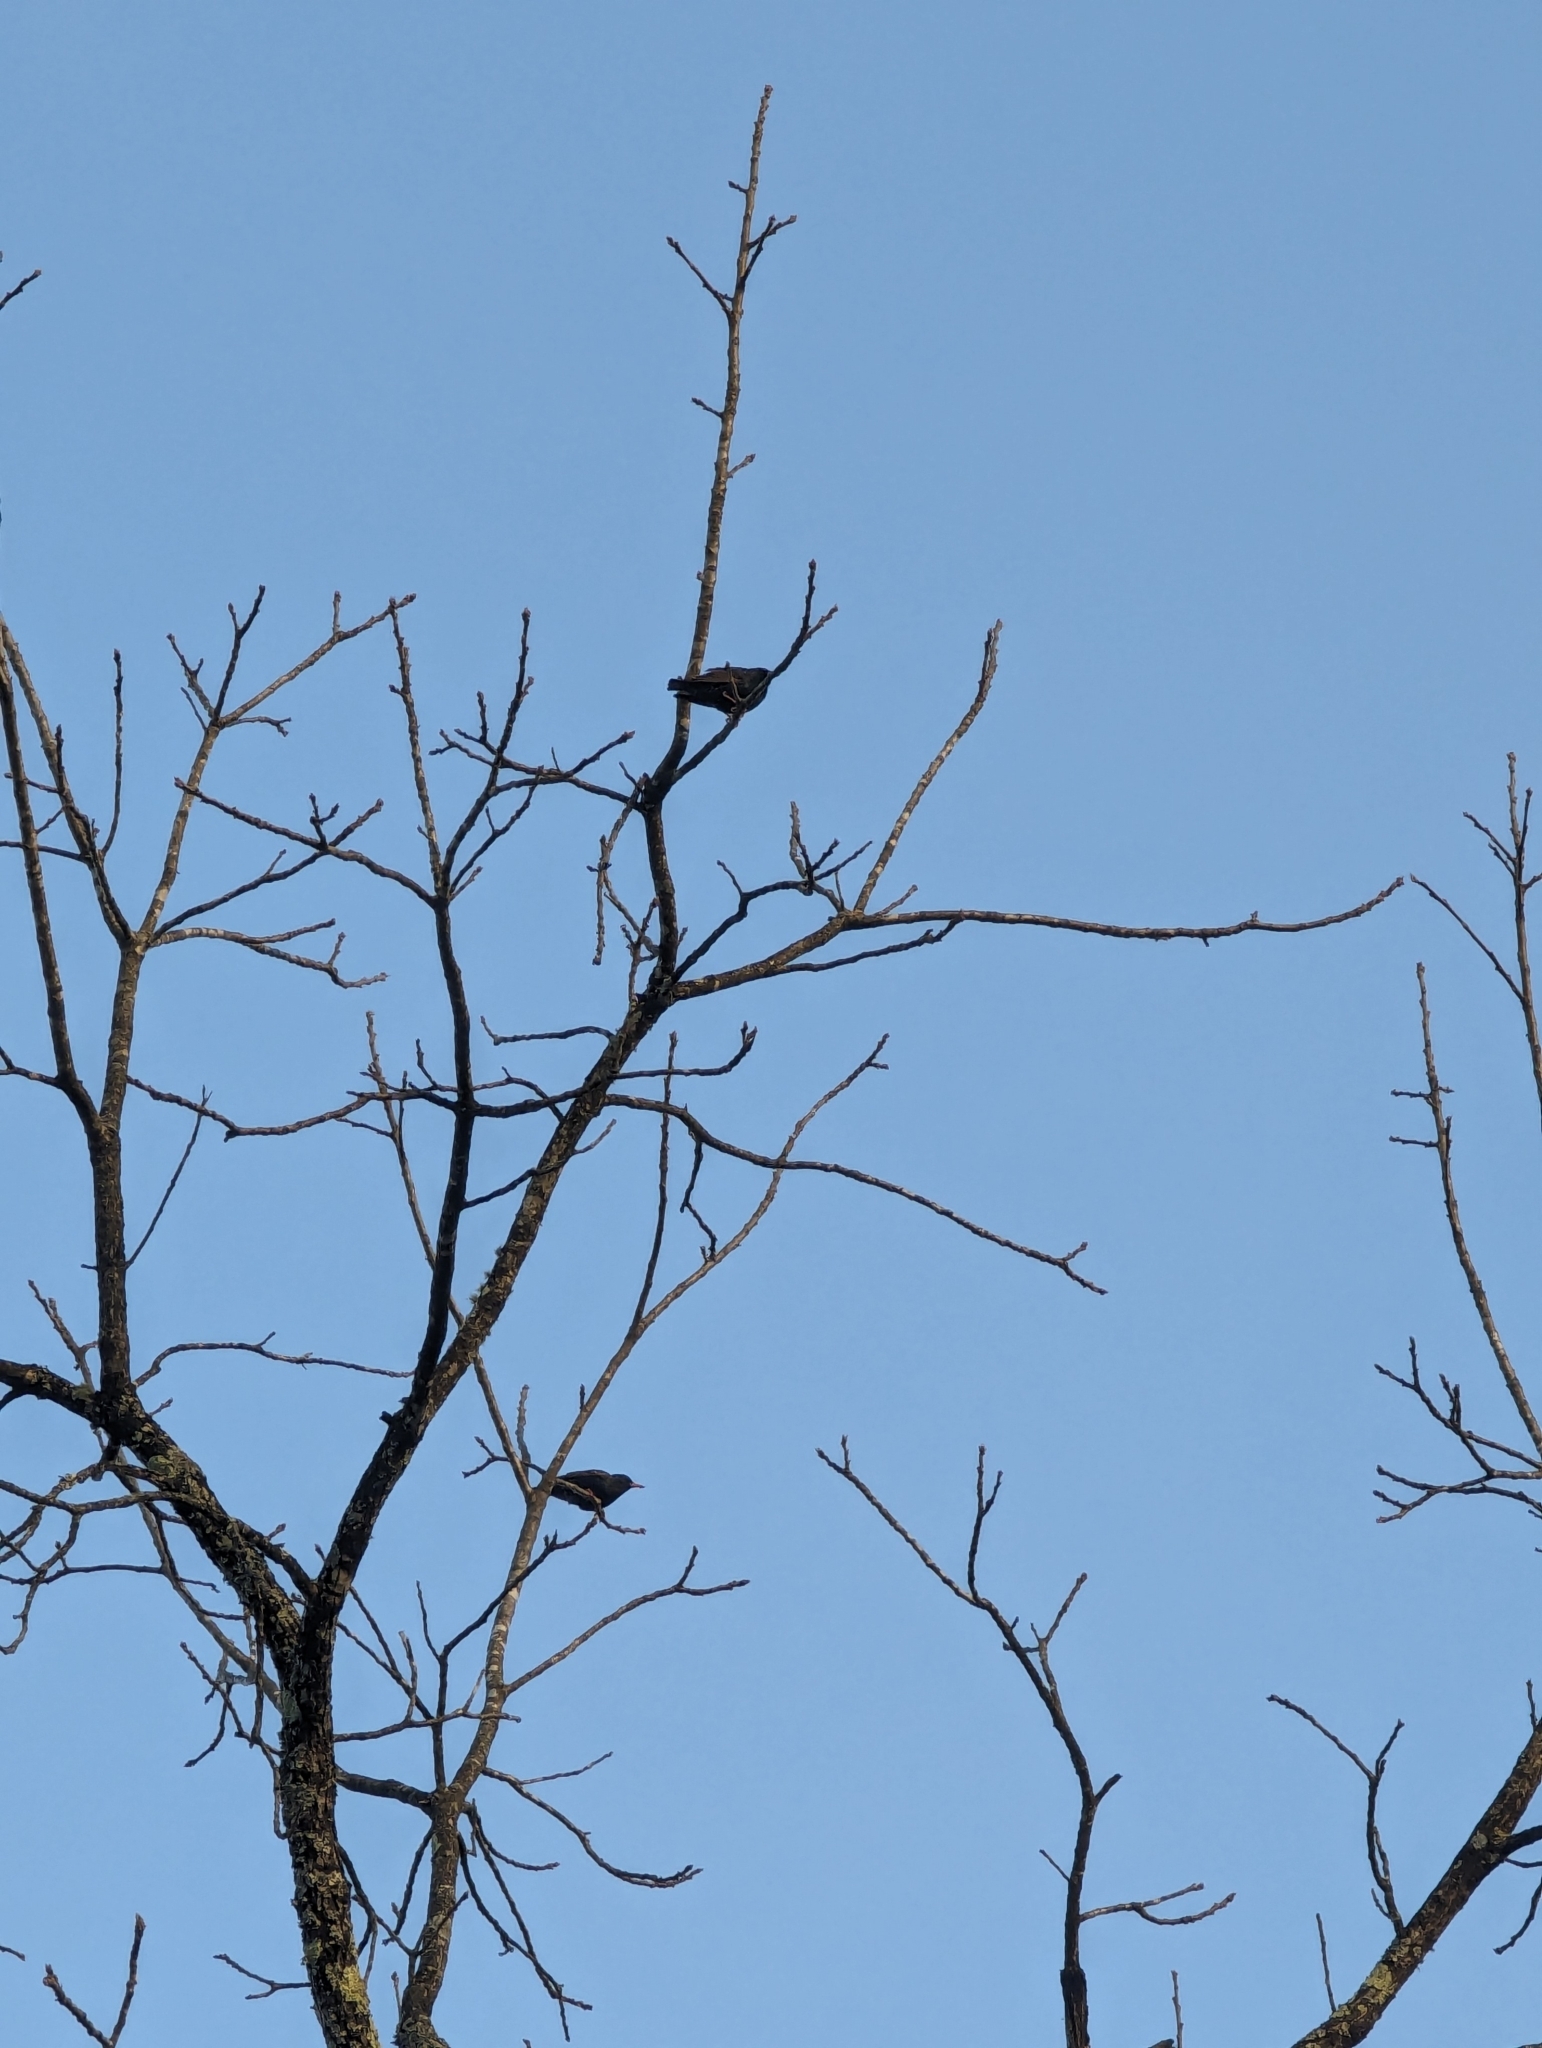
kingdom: Animalia
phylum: Chordata
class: Aves
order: Passeriformes
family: Sturnidae
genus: Sturnus
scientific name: Sturnus vulgaris
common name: Common starling
